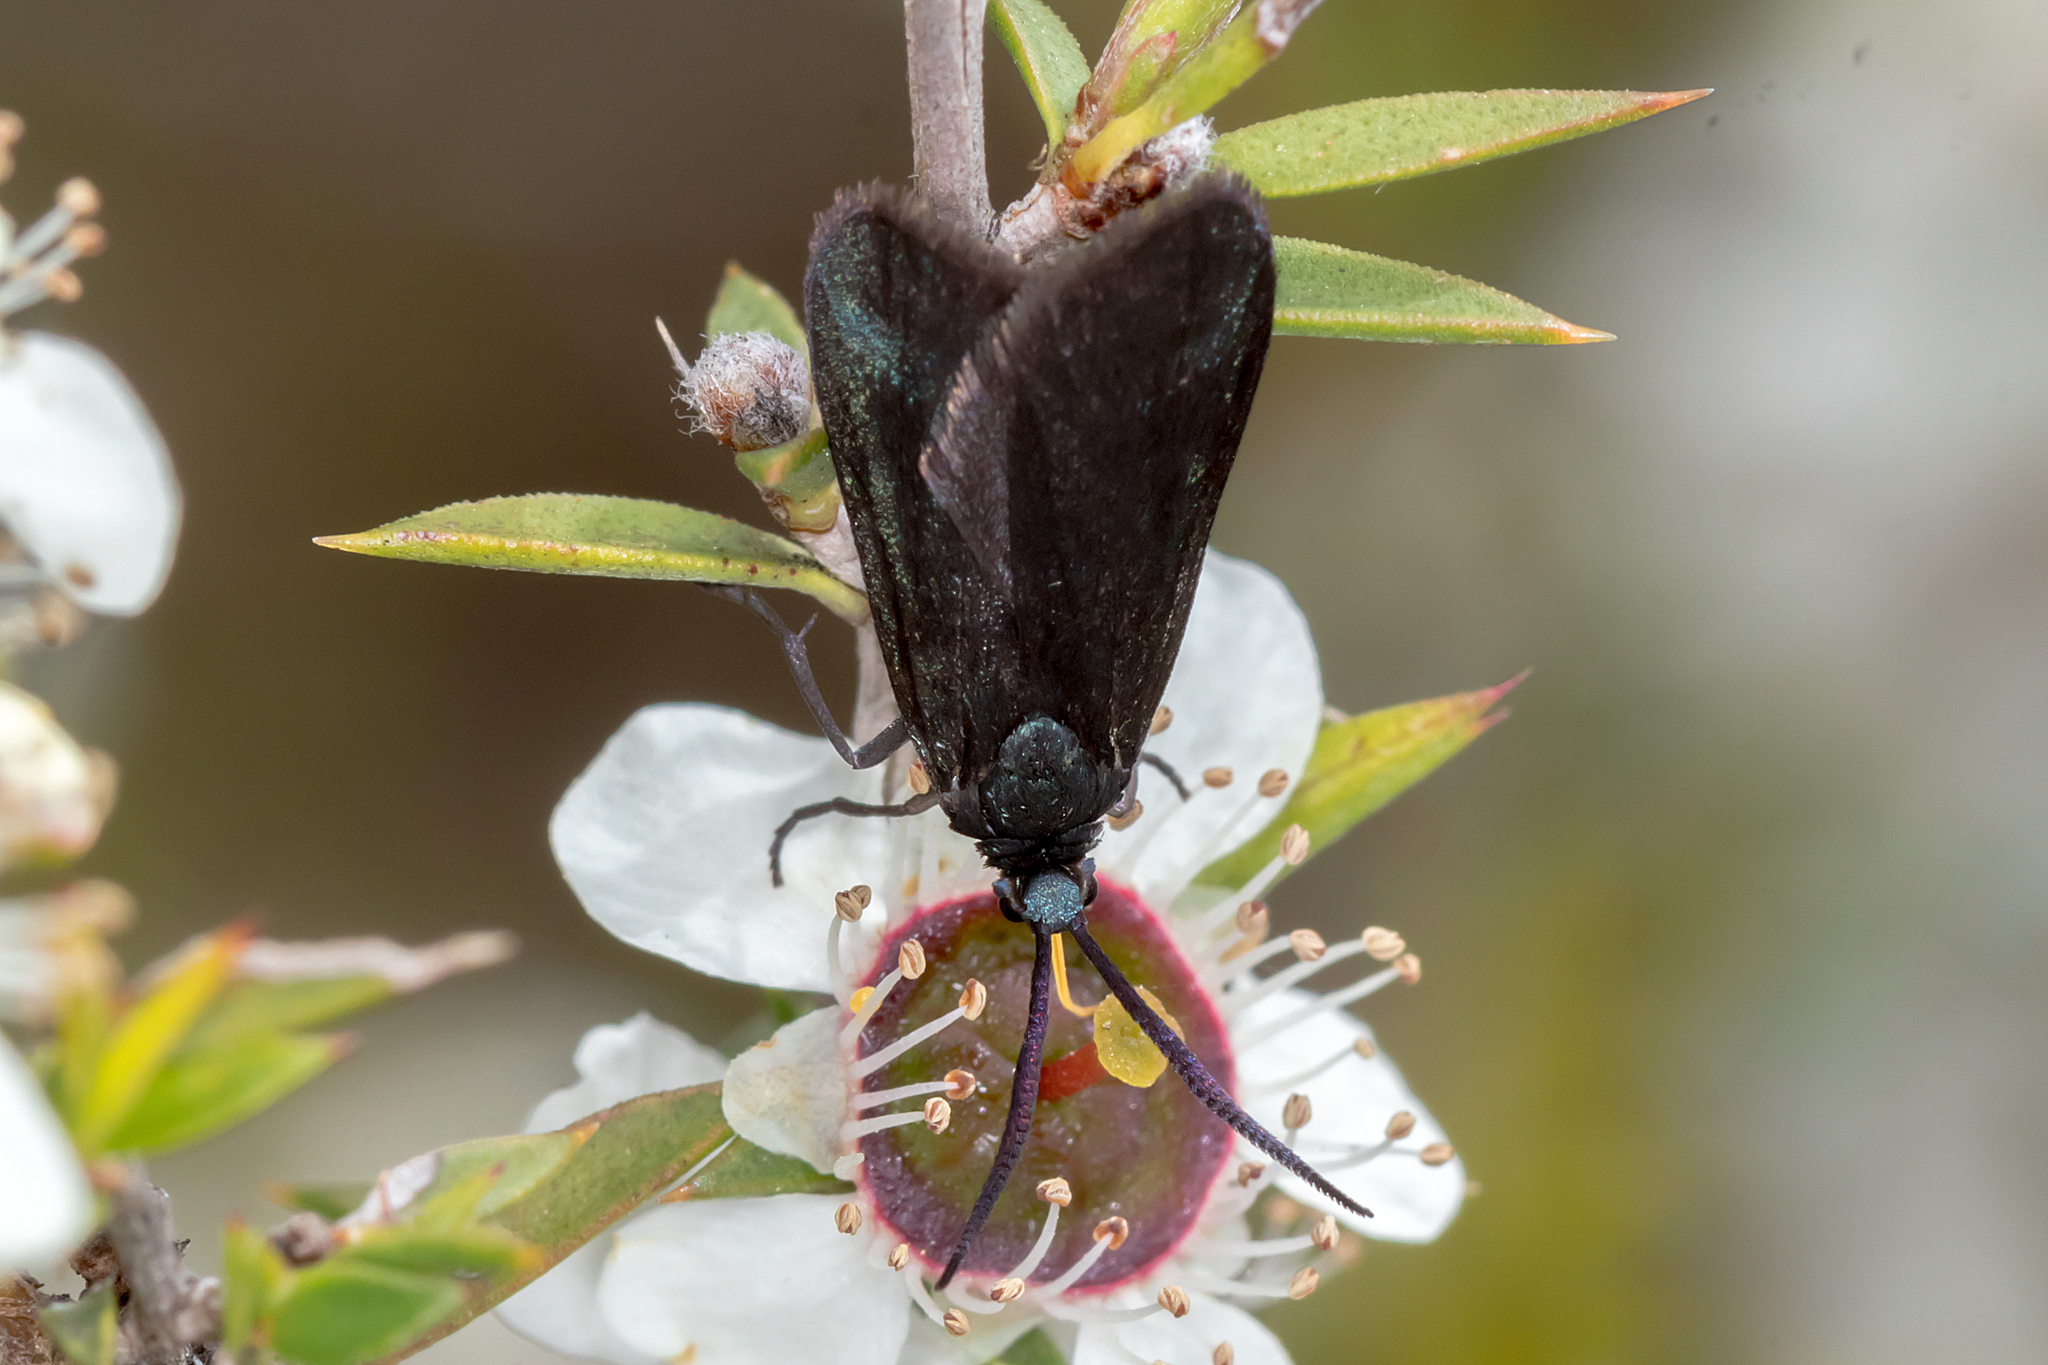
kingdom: Animalia
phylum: Arthropoda
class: Insecta
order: Lepidoptera
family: Zygaenidae
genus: Myrtartona
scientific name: Myrtartona coronias
